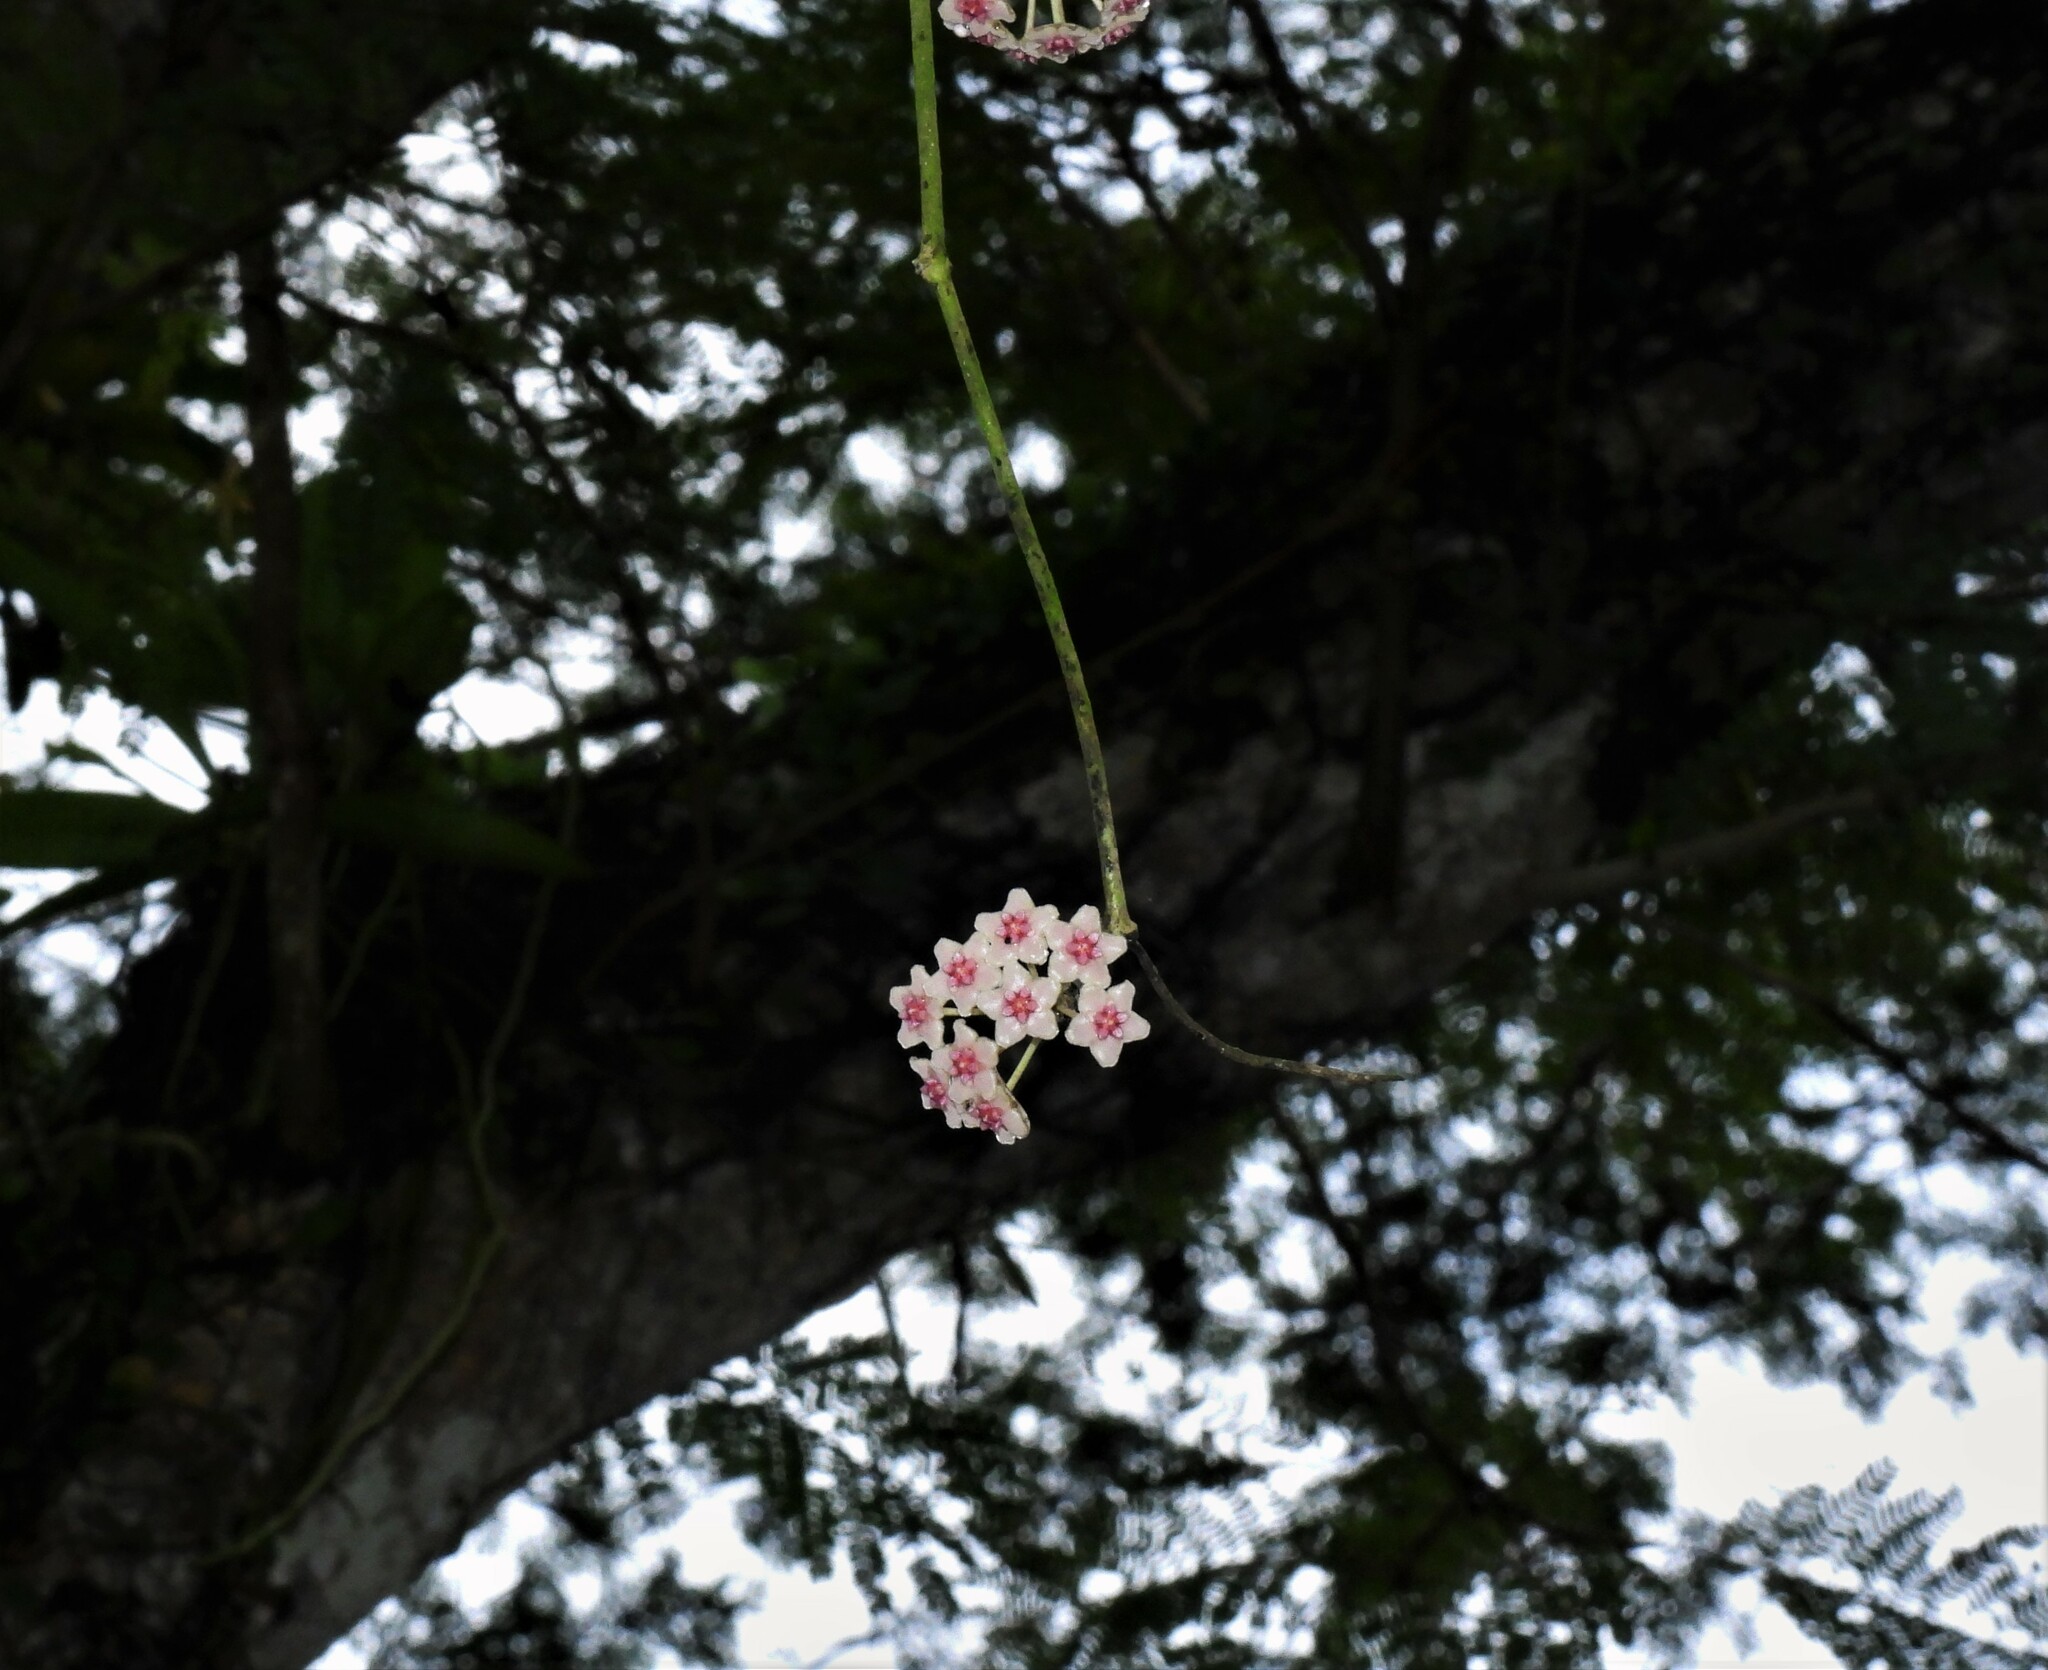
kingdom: Plantae
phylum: Tracheophyta
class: Magnoliopsida
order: Gentianales
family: Apocynaceae
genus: Hoya
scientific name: Hoya diversifolia
